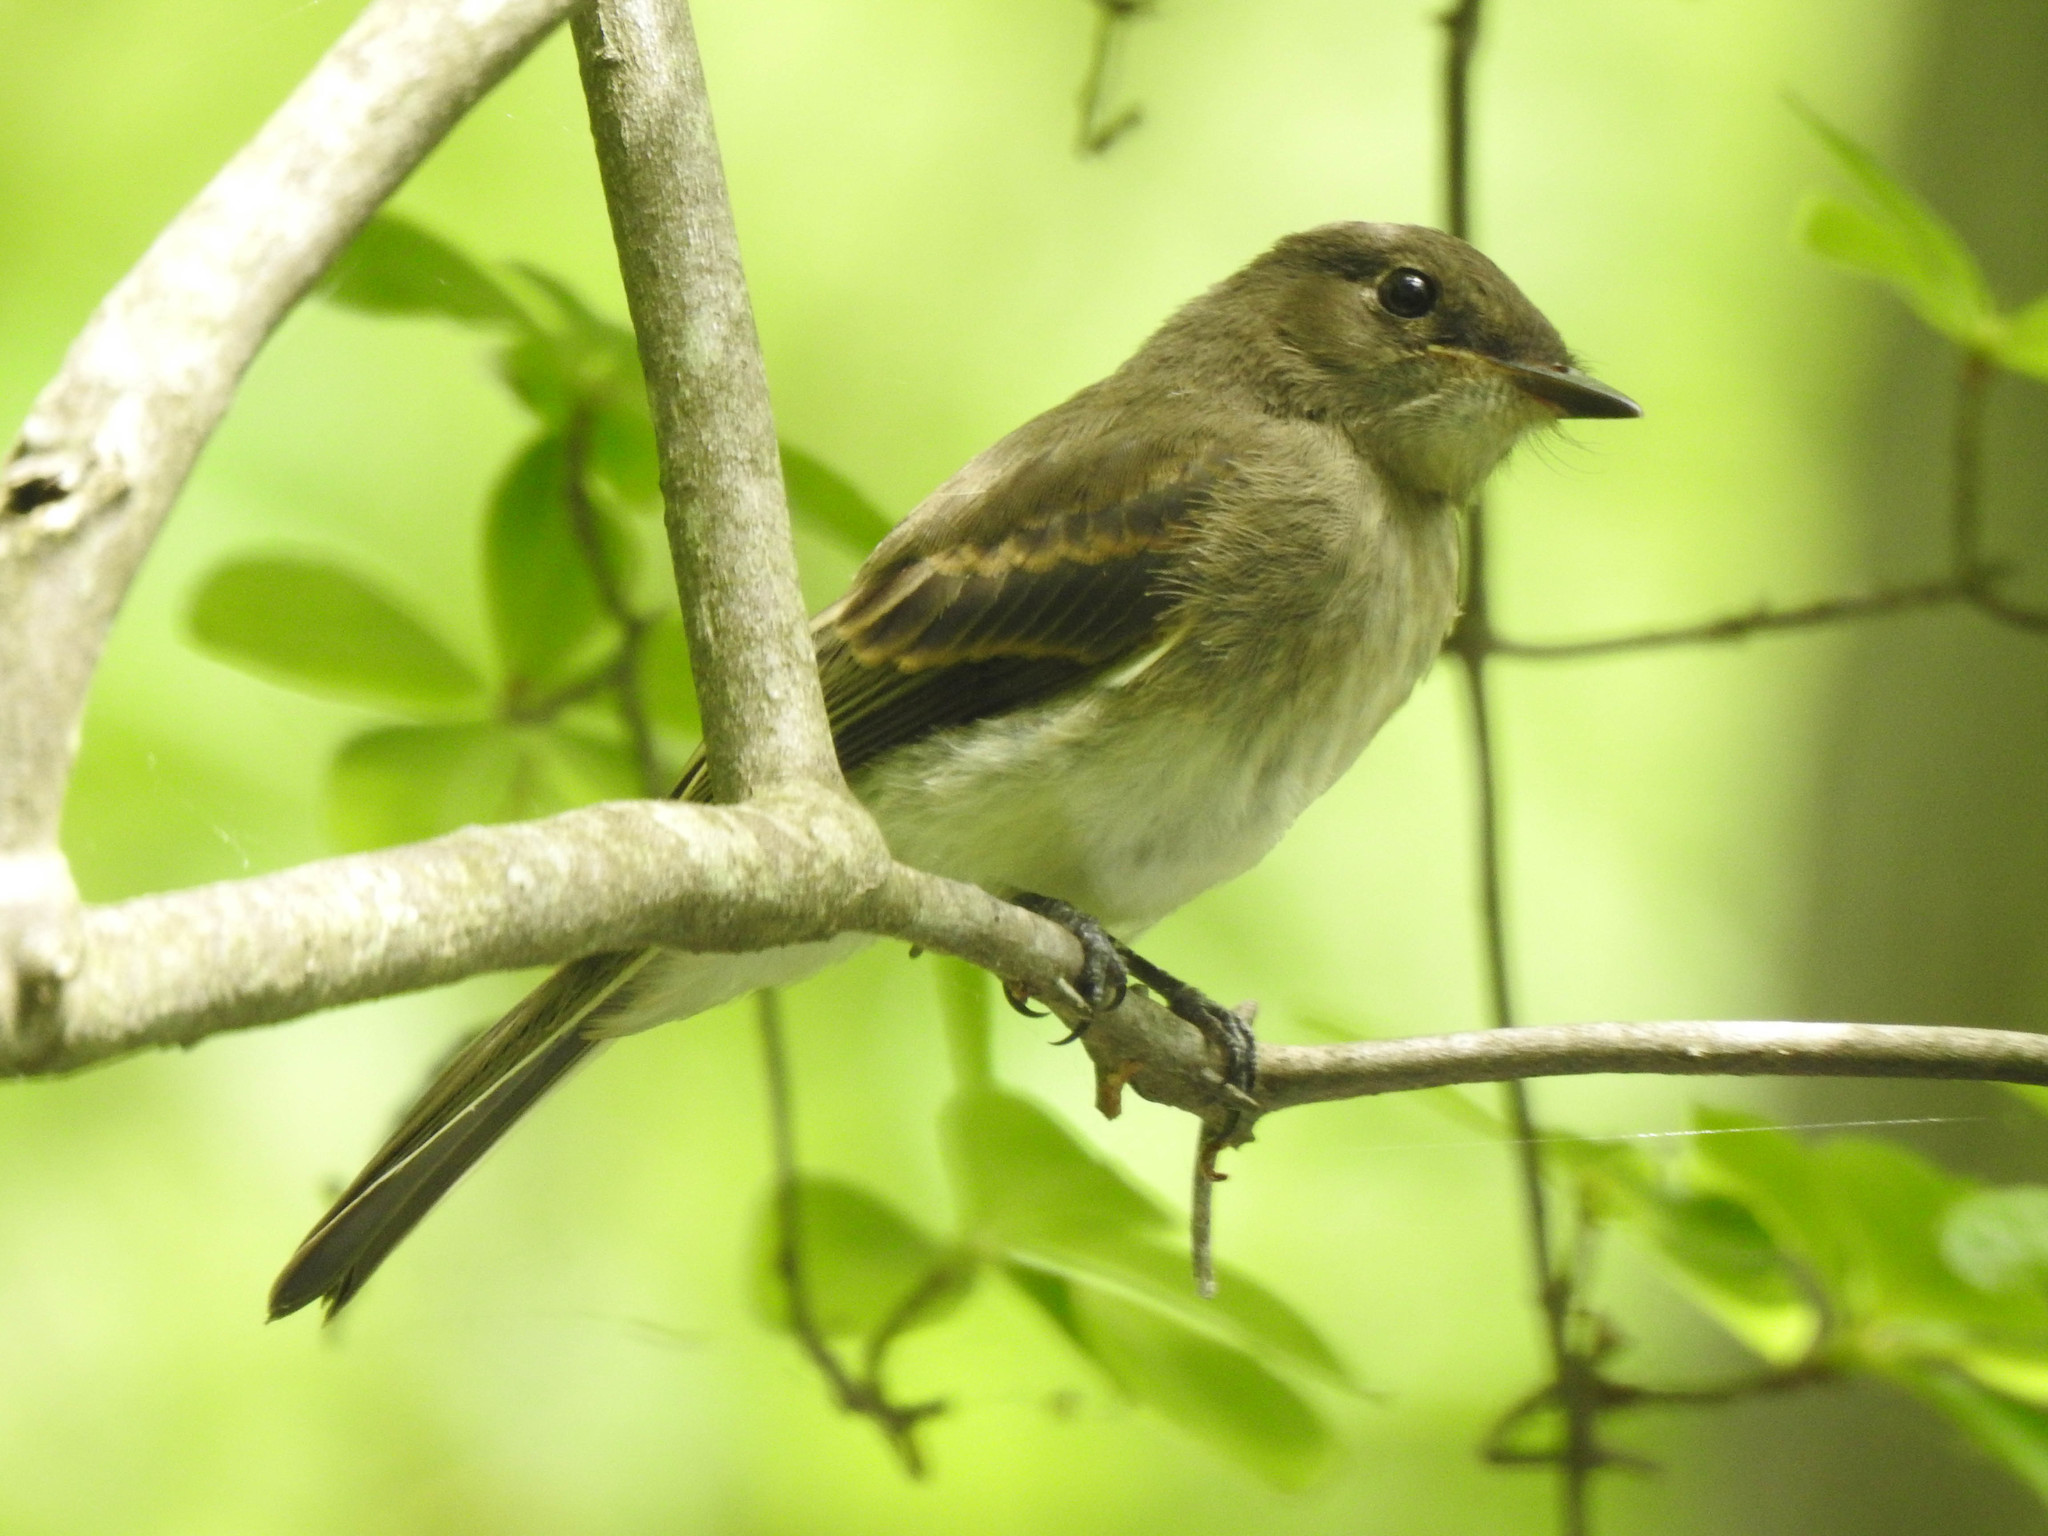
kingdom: Animalia
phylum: Chordata
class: Aves
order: Passeriformes
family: Tyrannidae
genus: Sayornis
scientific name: Sayornis phoebe
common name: Eastern phoebe
